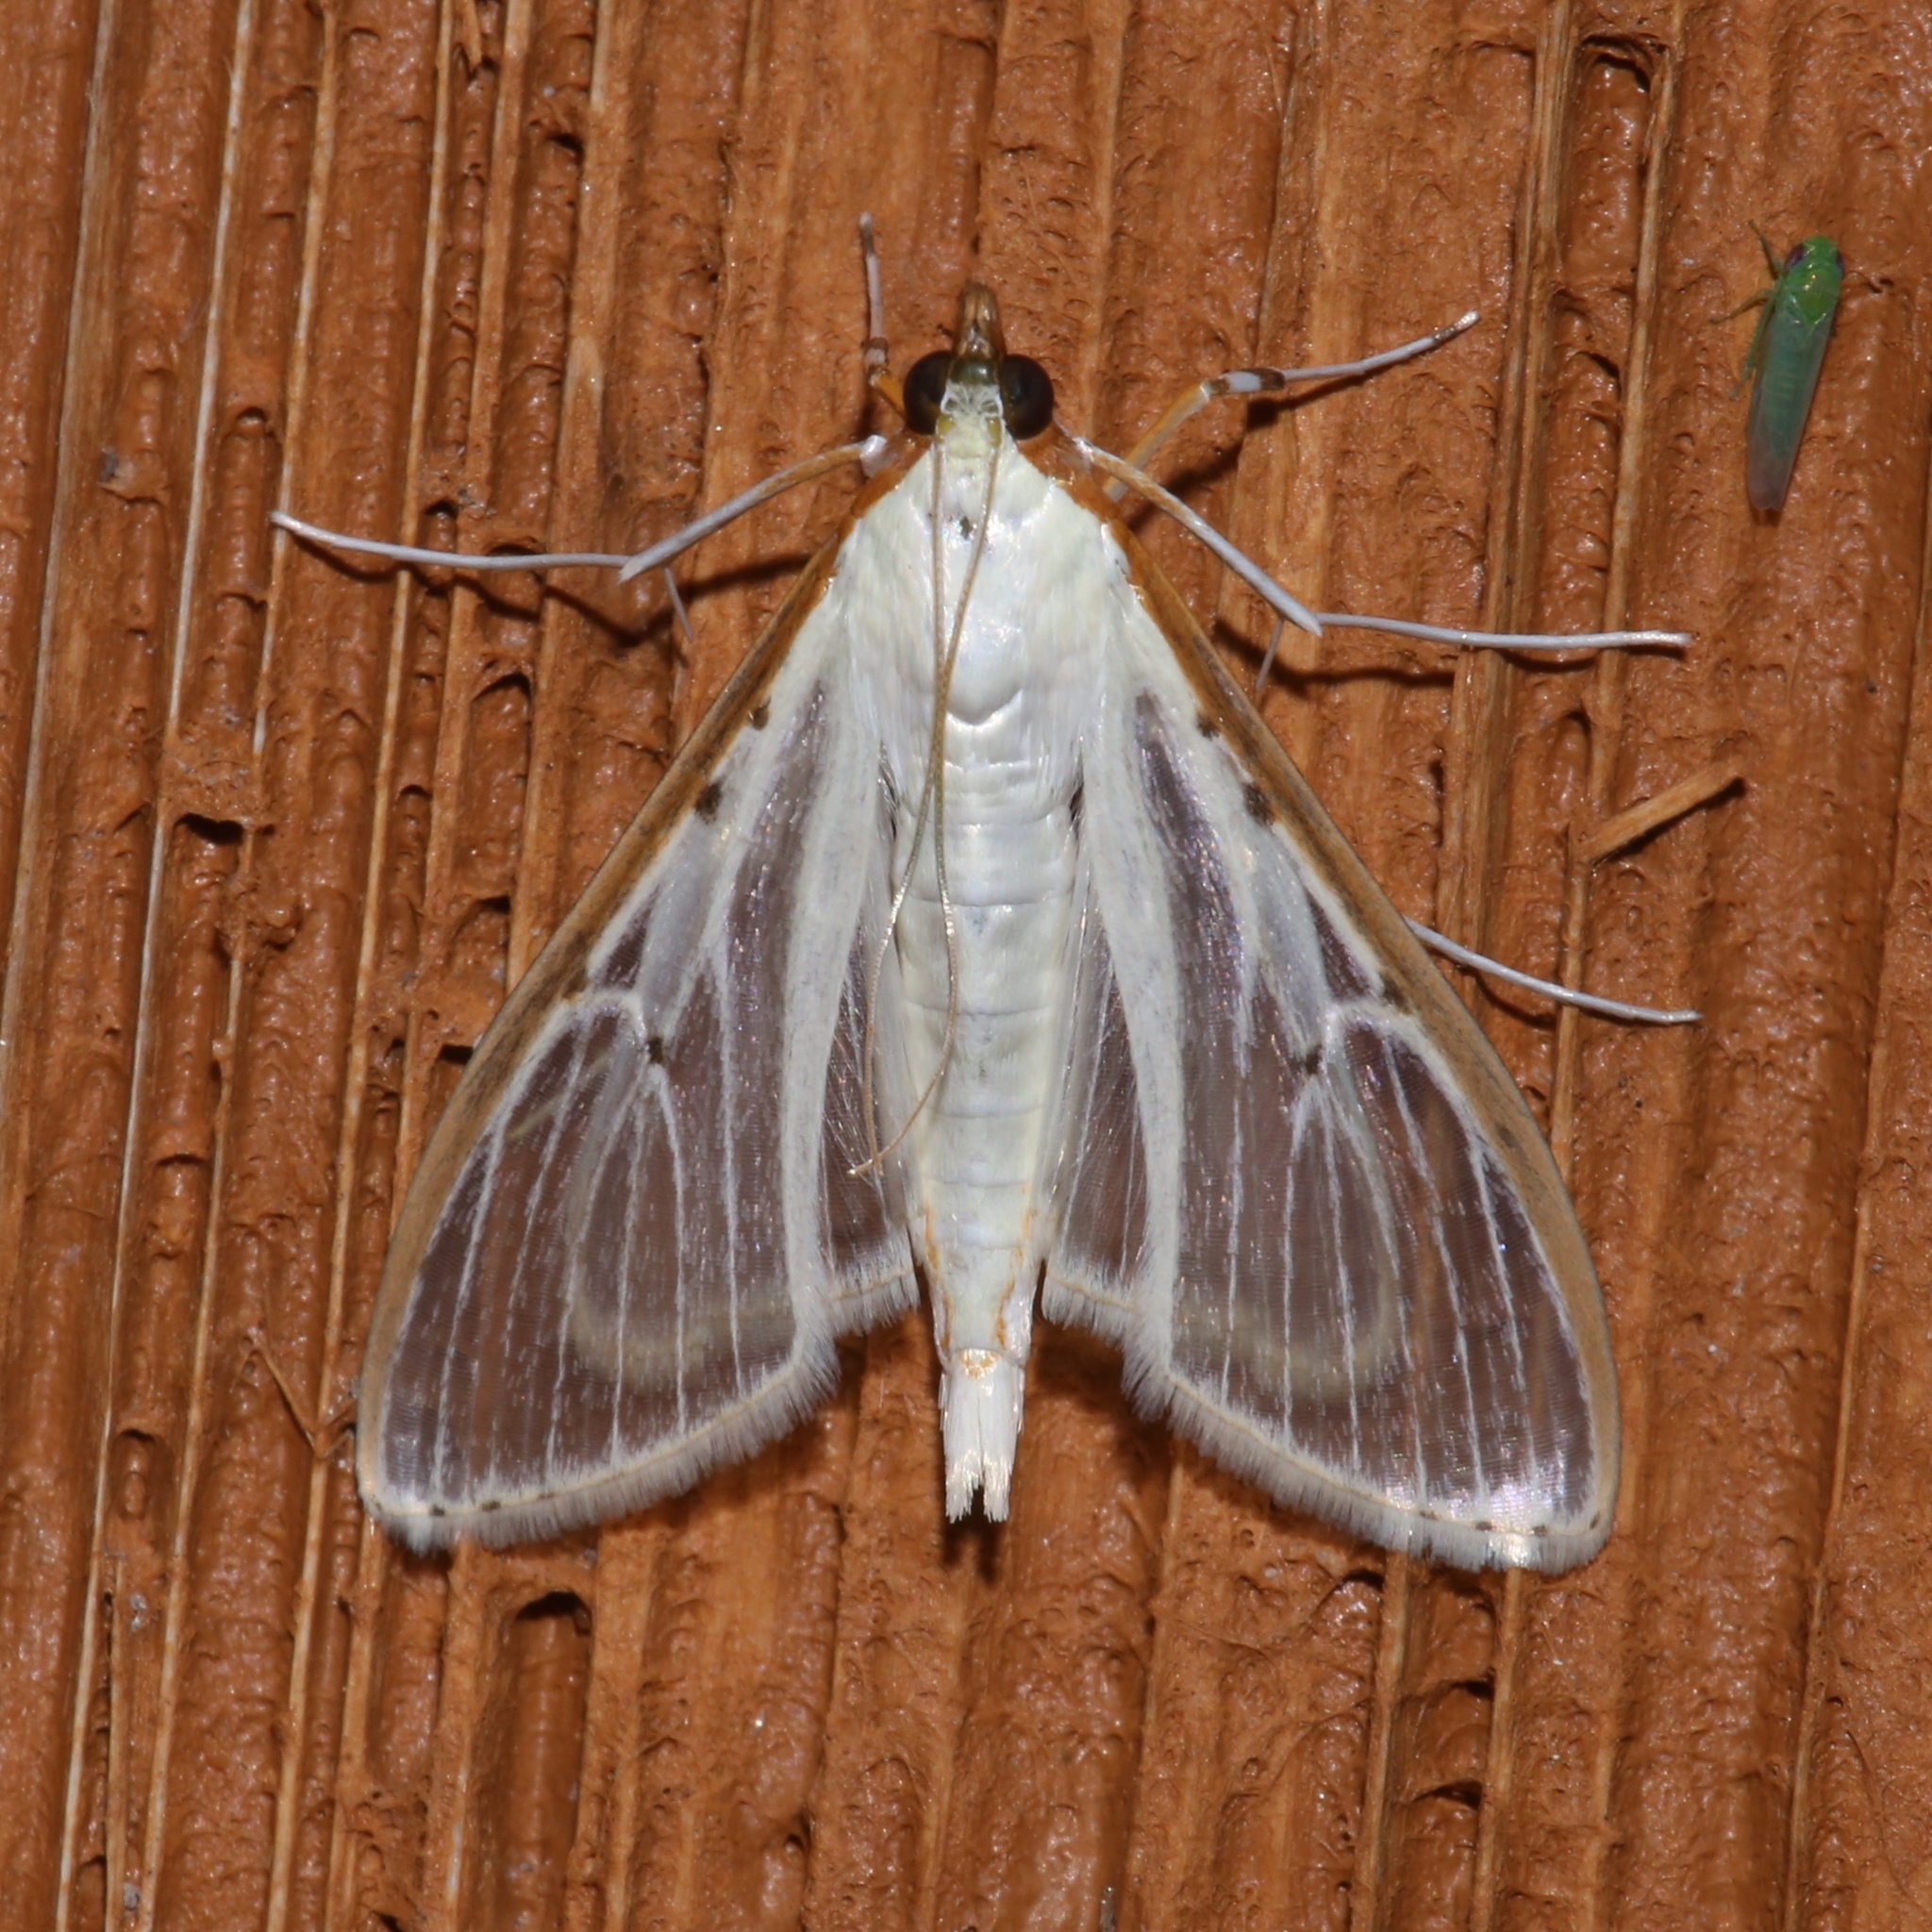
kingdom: Animalia
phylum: Arthropoda
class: Insecta
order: Lepidoptera
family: Crambidae
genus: Palpita
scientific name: Palpita quadristigmalis
